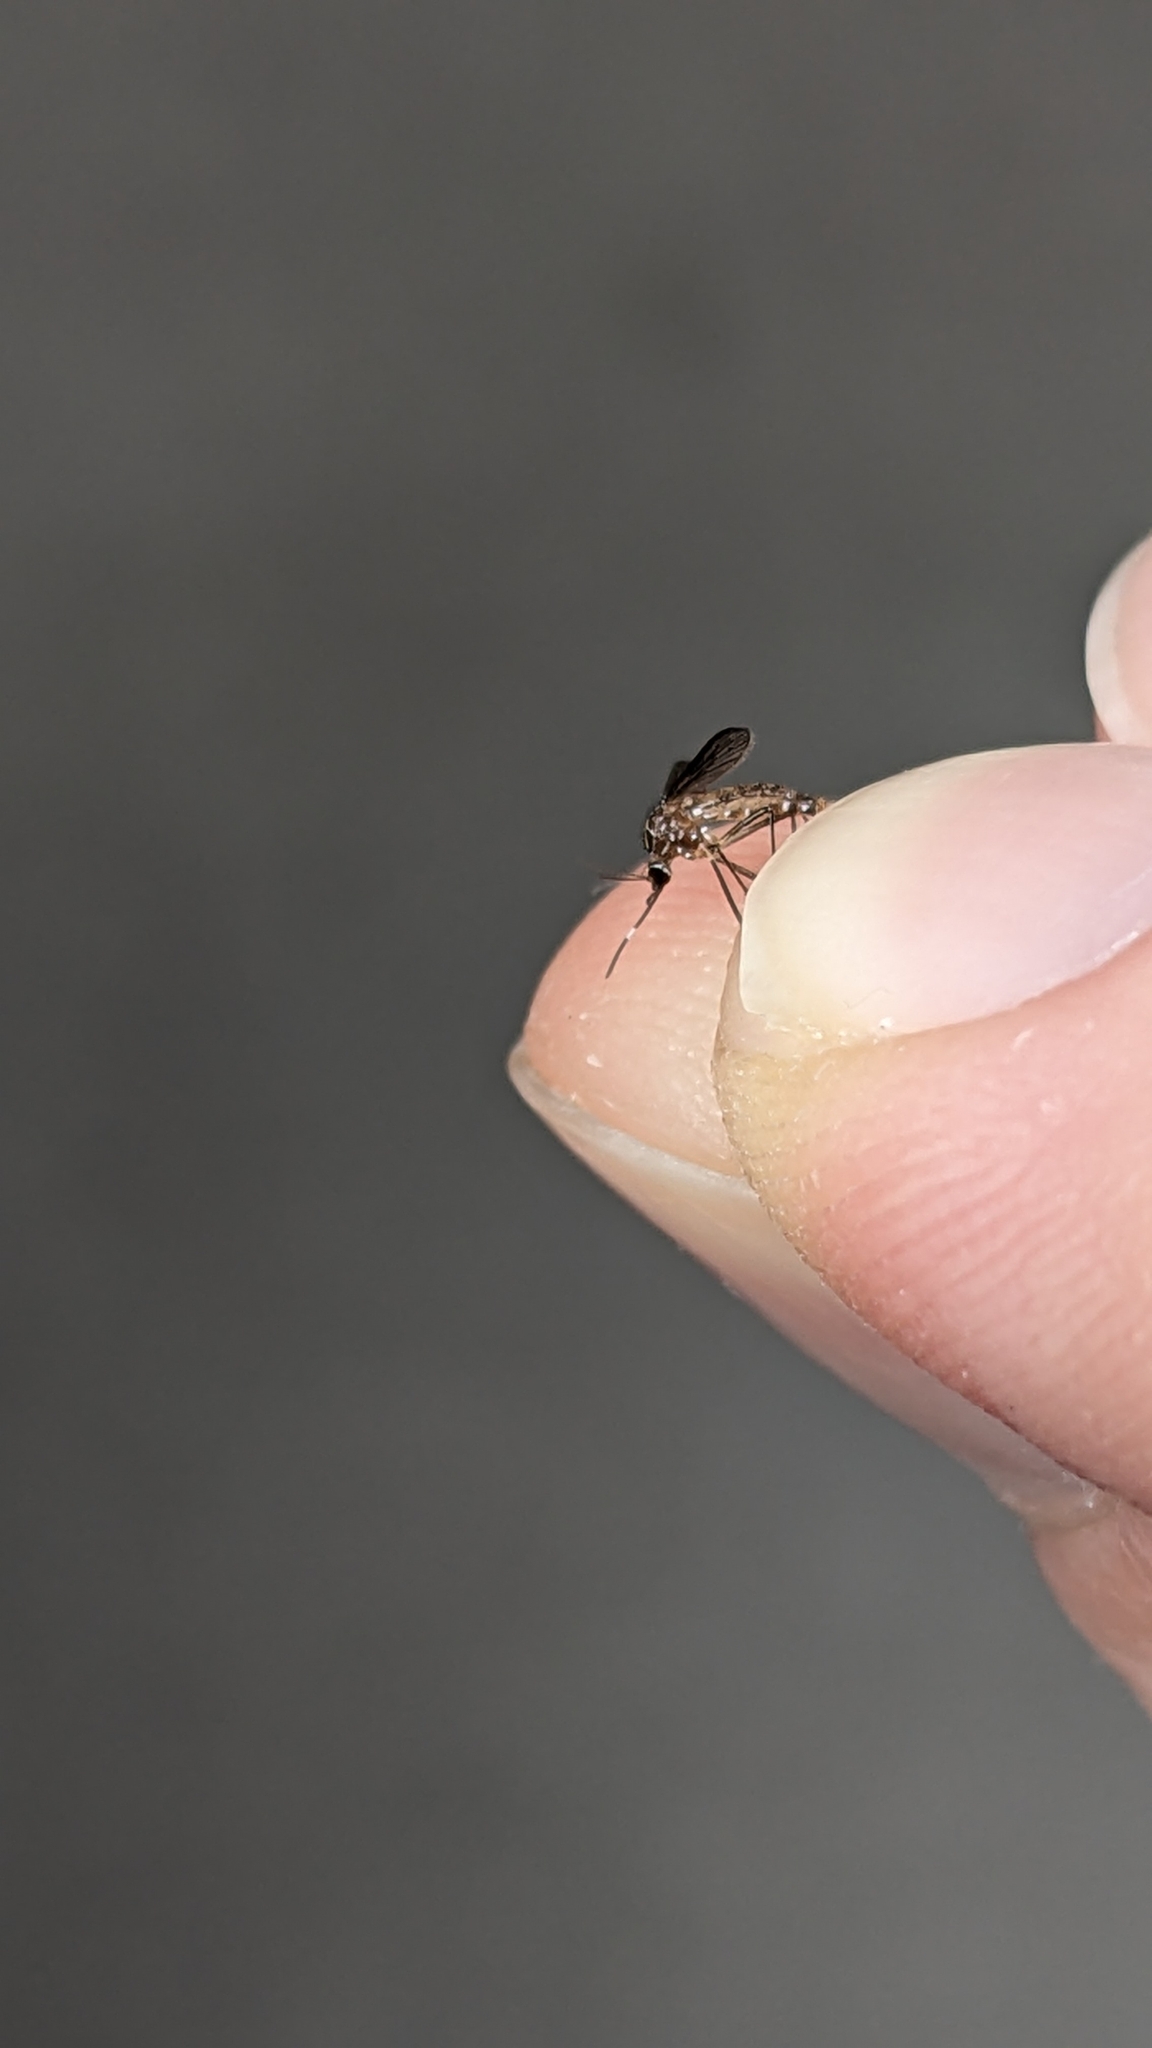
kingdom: Animalia
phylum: Arthropoda
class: Insecta
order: Diptera
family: Culicidae
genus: Aedes
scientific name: Aedes notoscriptus
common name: Australian backyard mosquito
